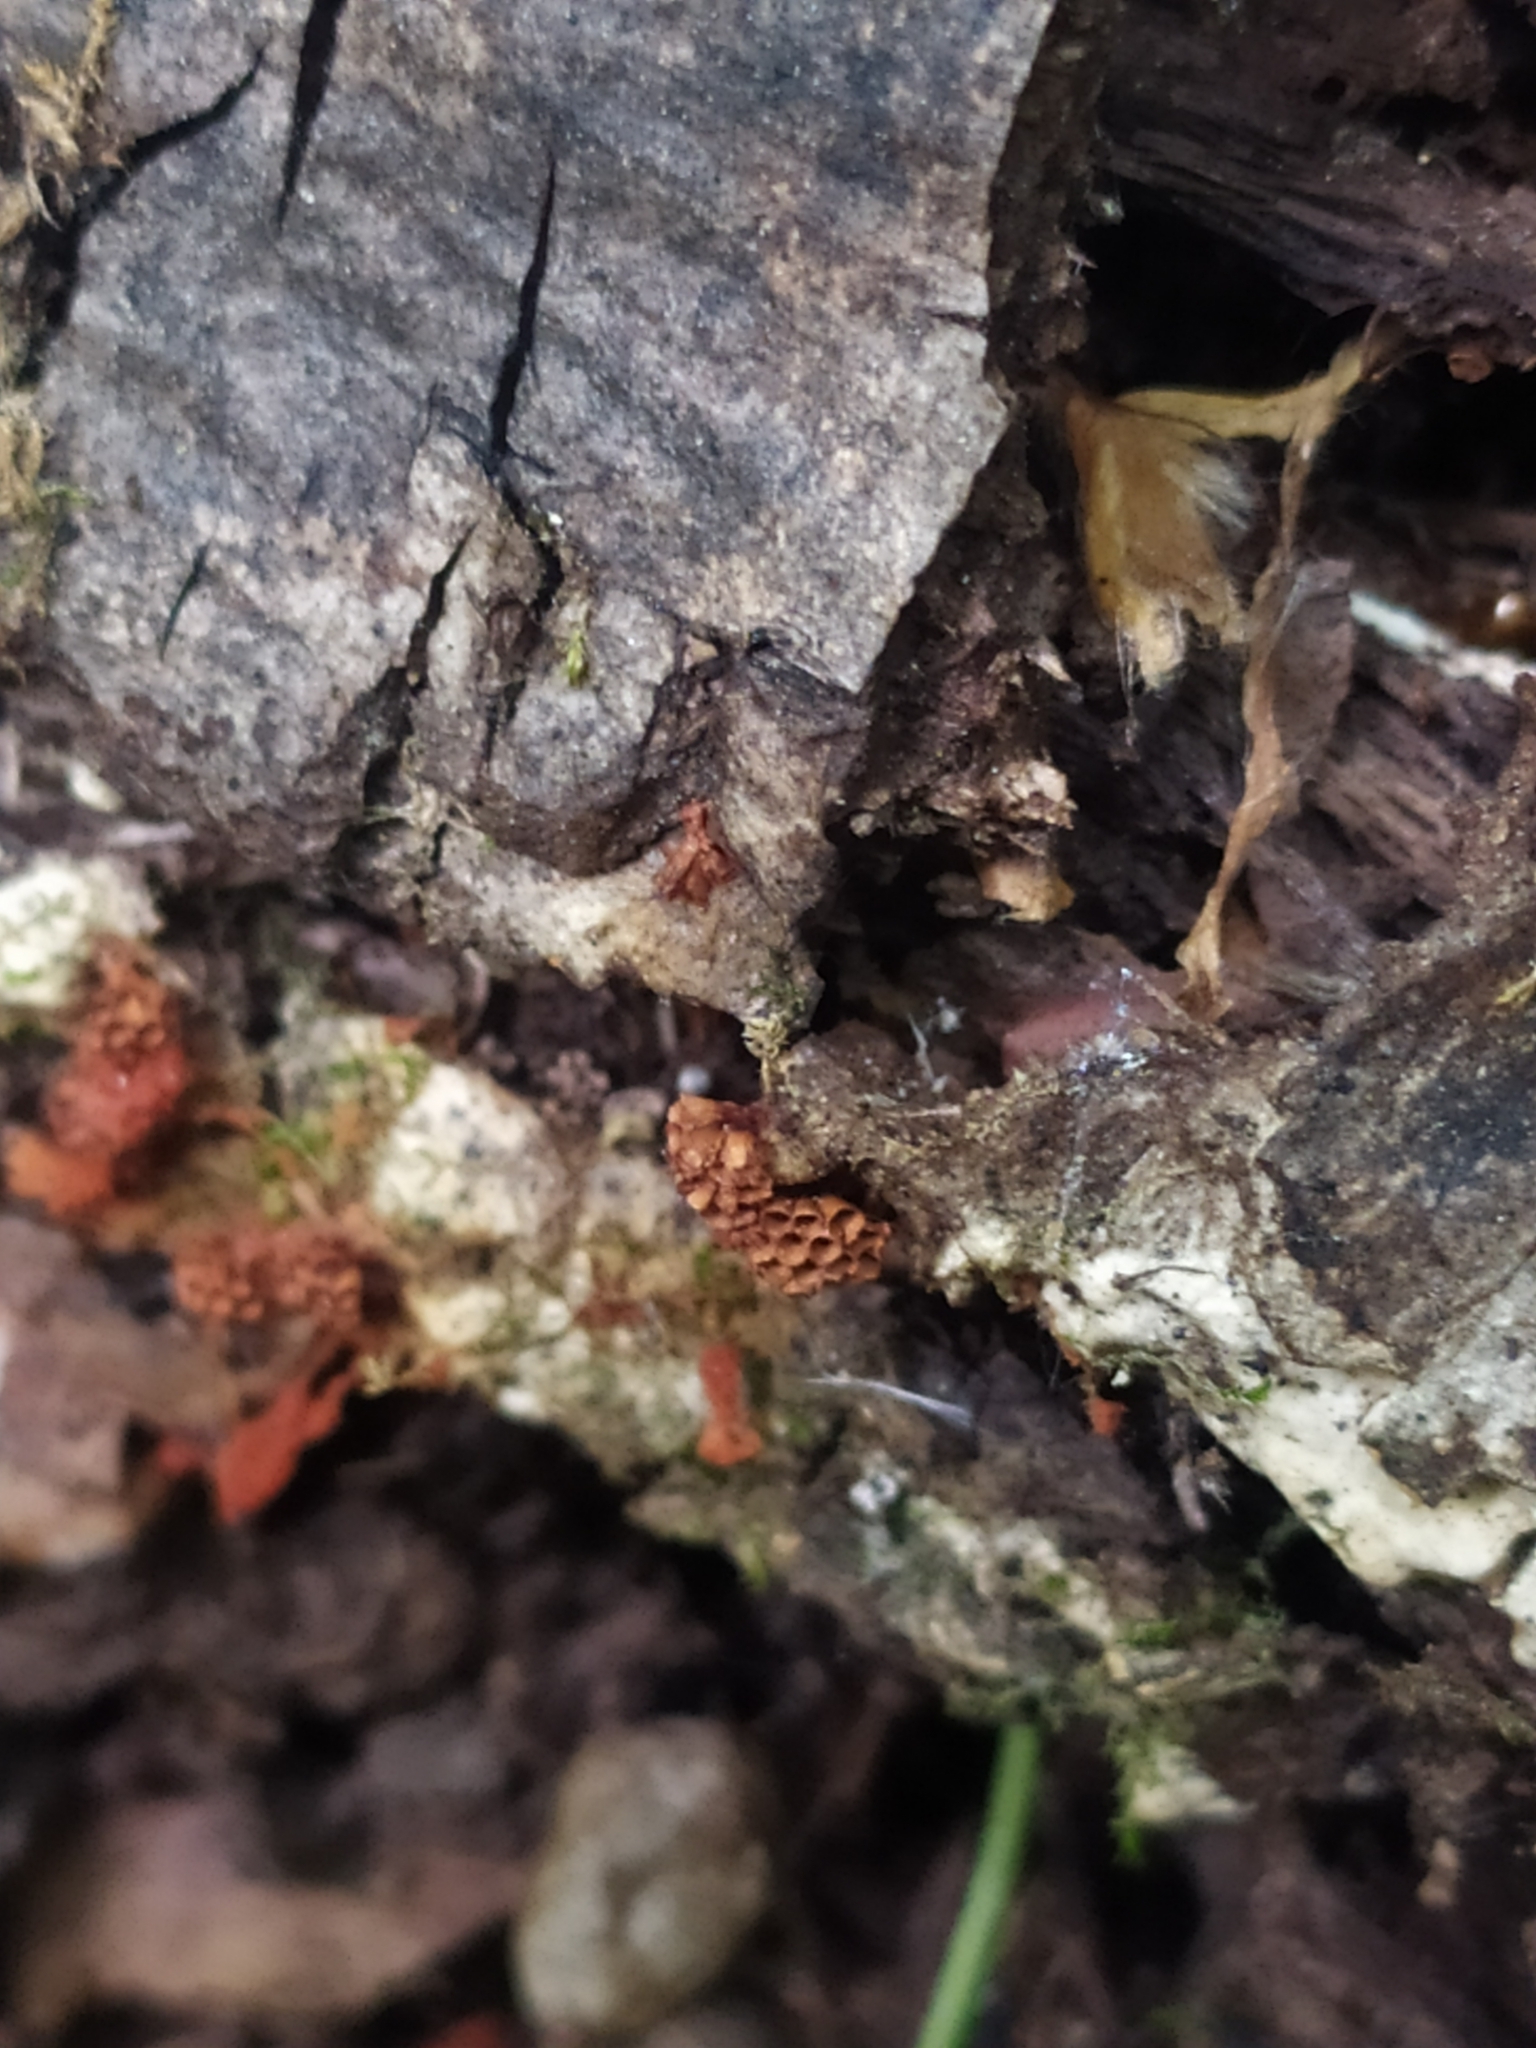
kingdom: Protozoa
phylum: Mycetozoa
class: Myxomycetes
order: Trichiales
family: Trichiaceae
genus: Metatrichia
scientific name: Metatrichia vesparia
